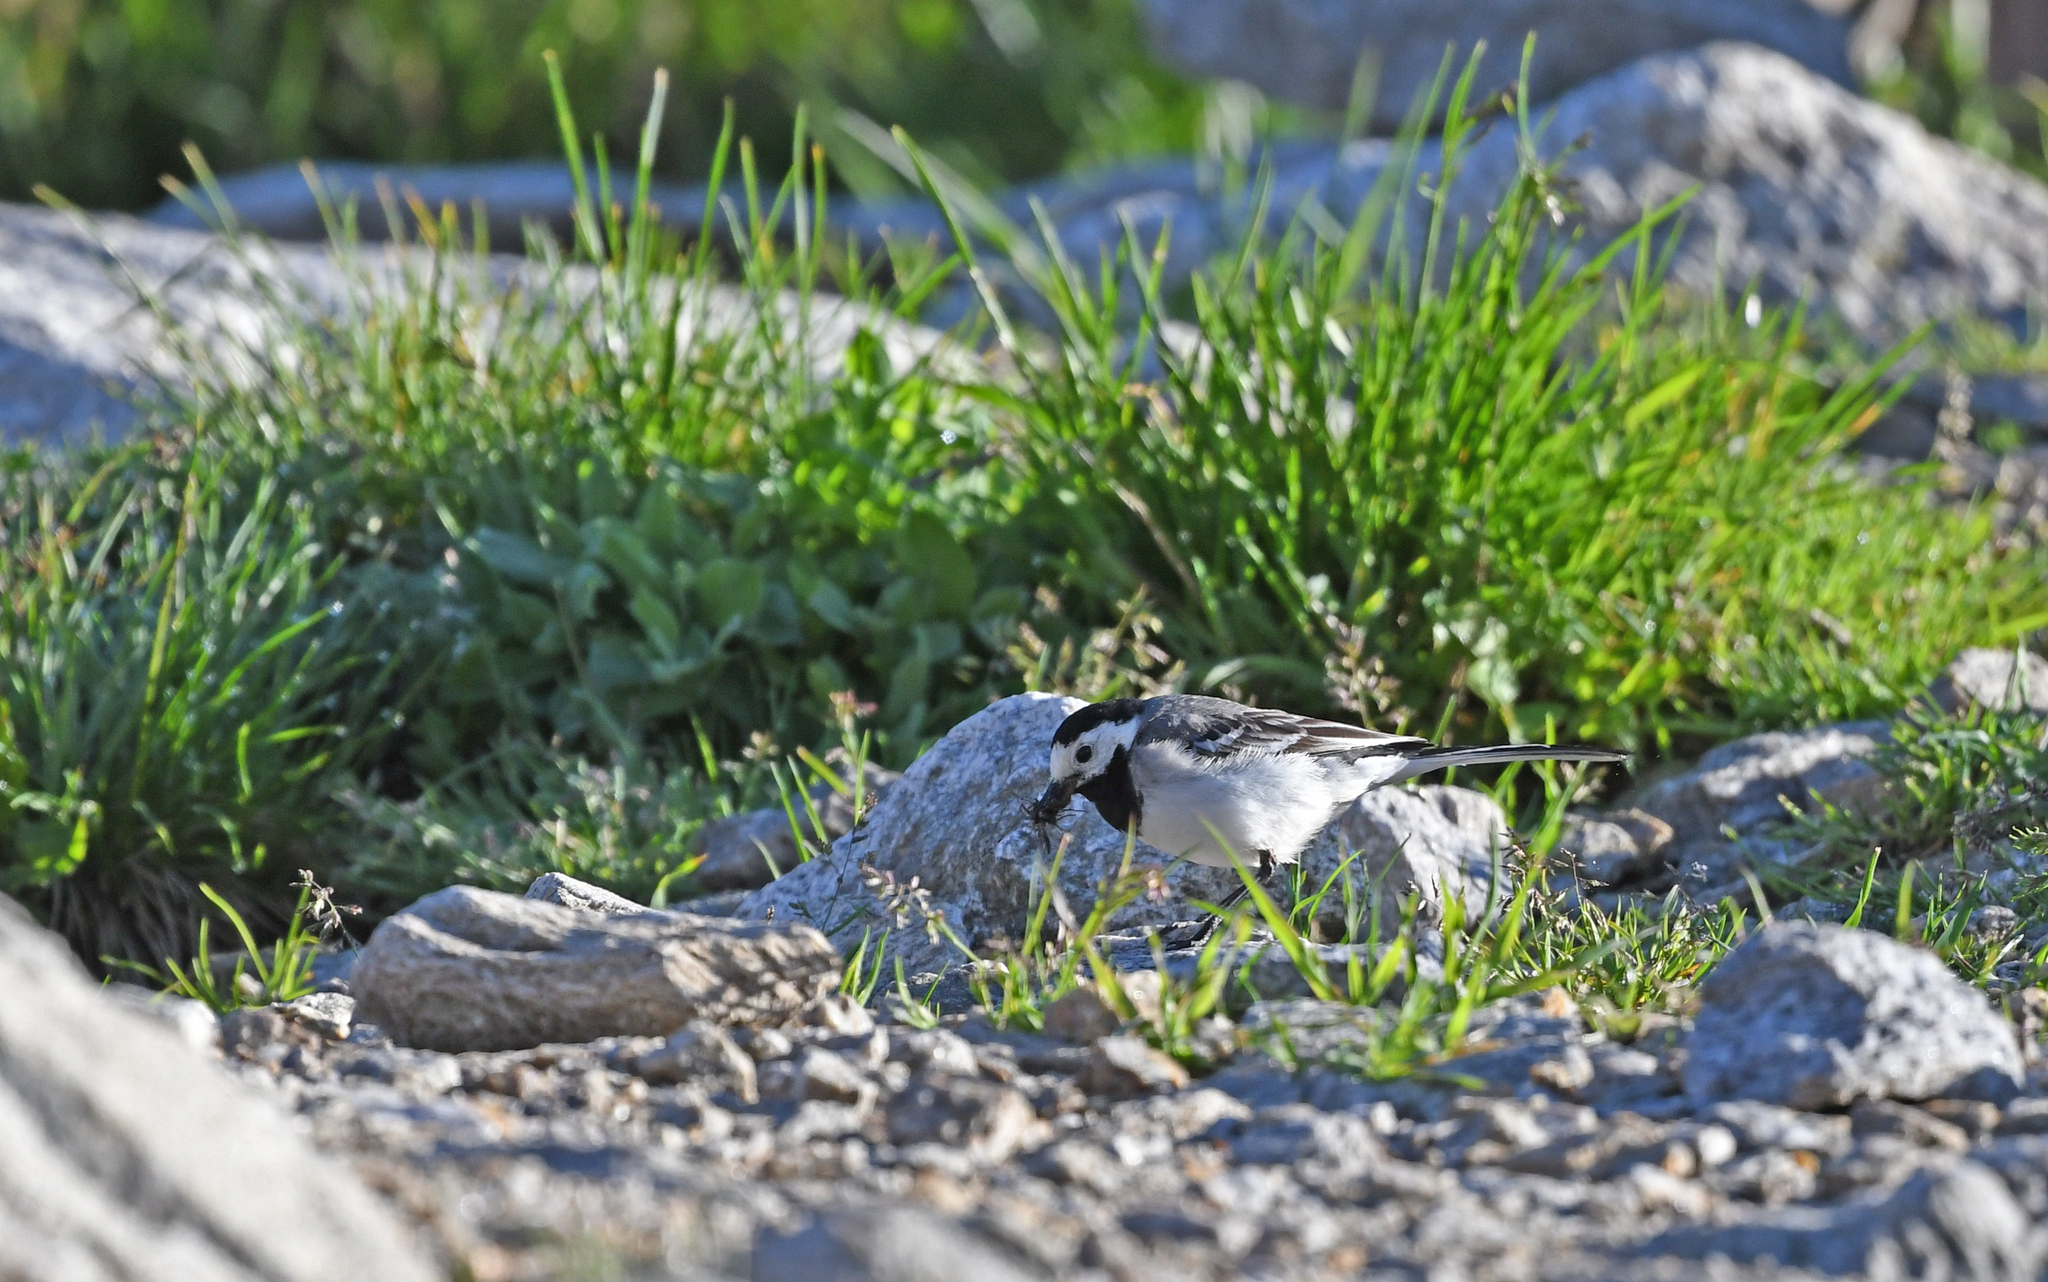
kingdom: Animalia
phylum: Chordata
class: Aves
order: Passeriformes
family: Motacillidae
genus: Motacilla
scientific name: Motacilla alba
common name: White wagtail
